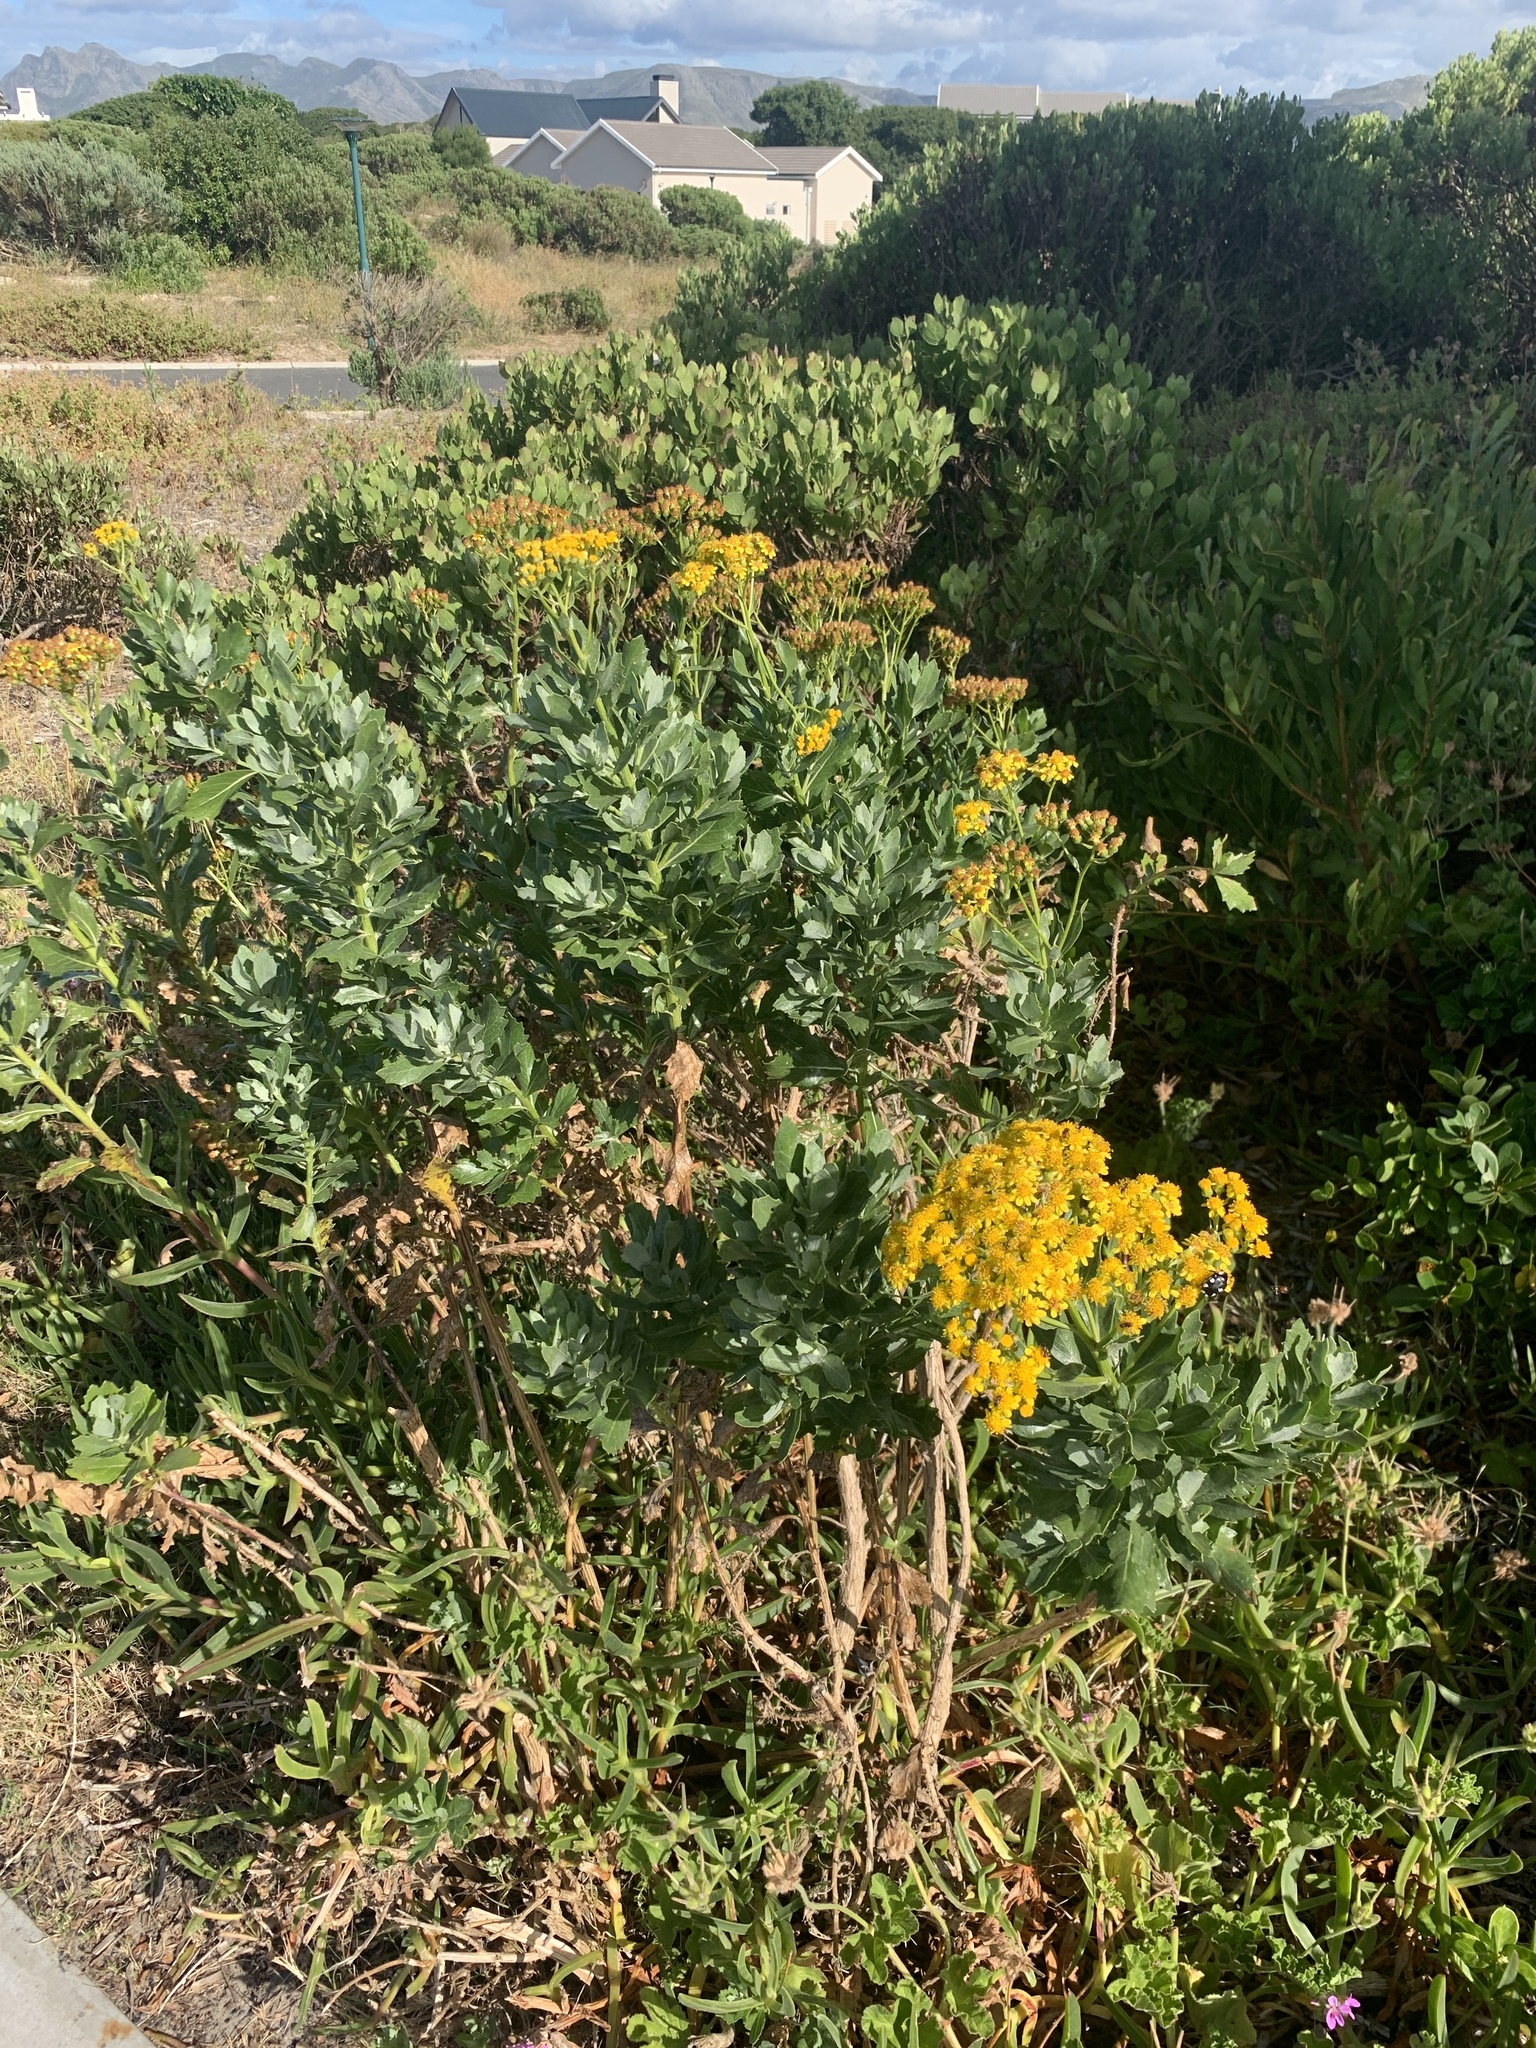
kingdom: Plantae
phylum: Tracheophyta
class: Magnoliopsida
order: Asterales
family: Asteraceae
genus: Senecio
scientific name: Senecio halimifolius
